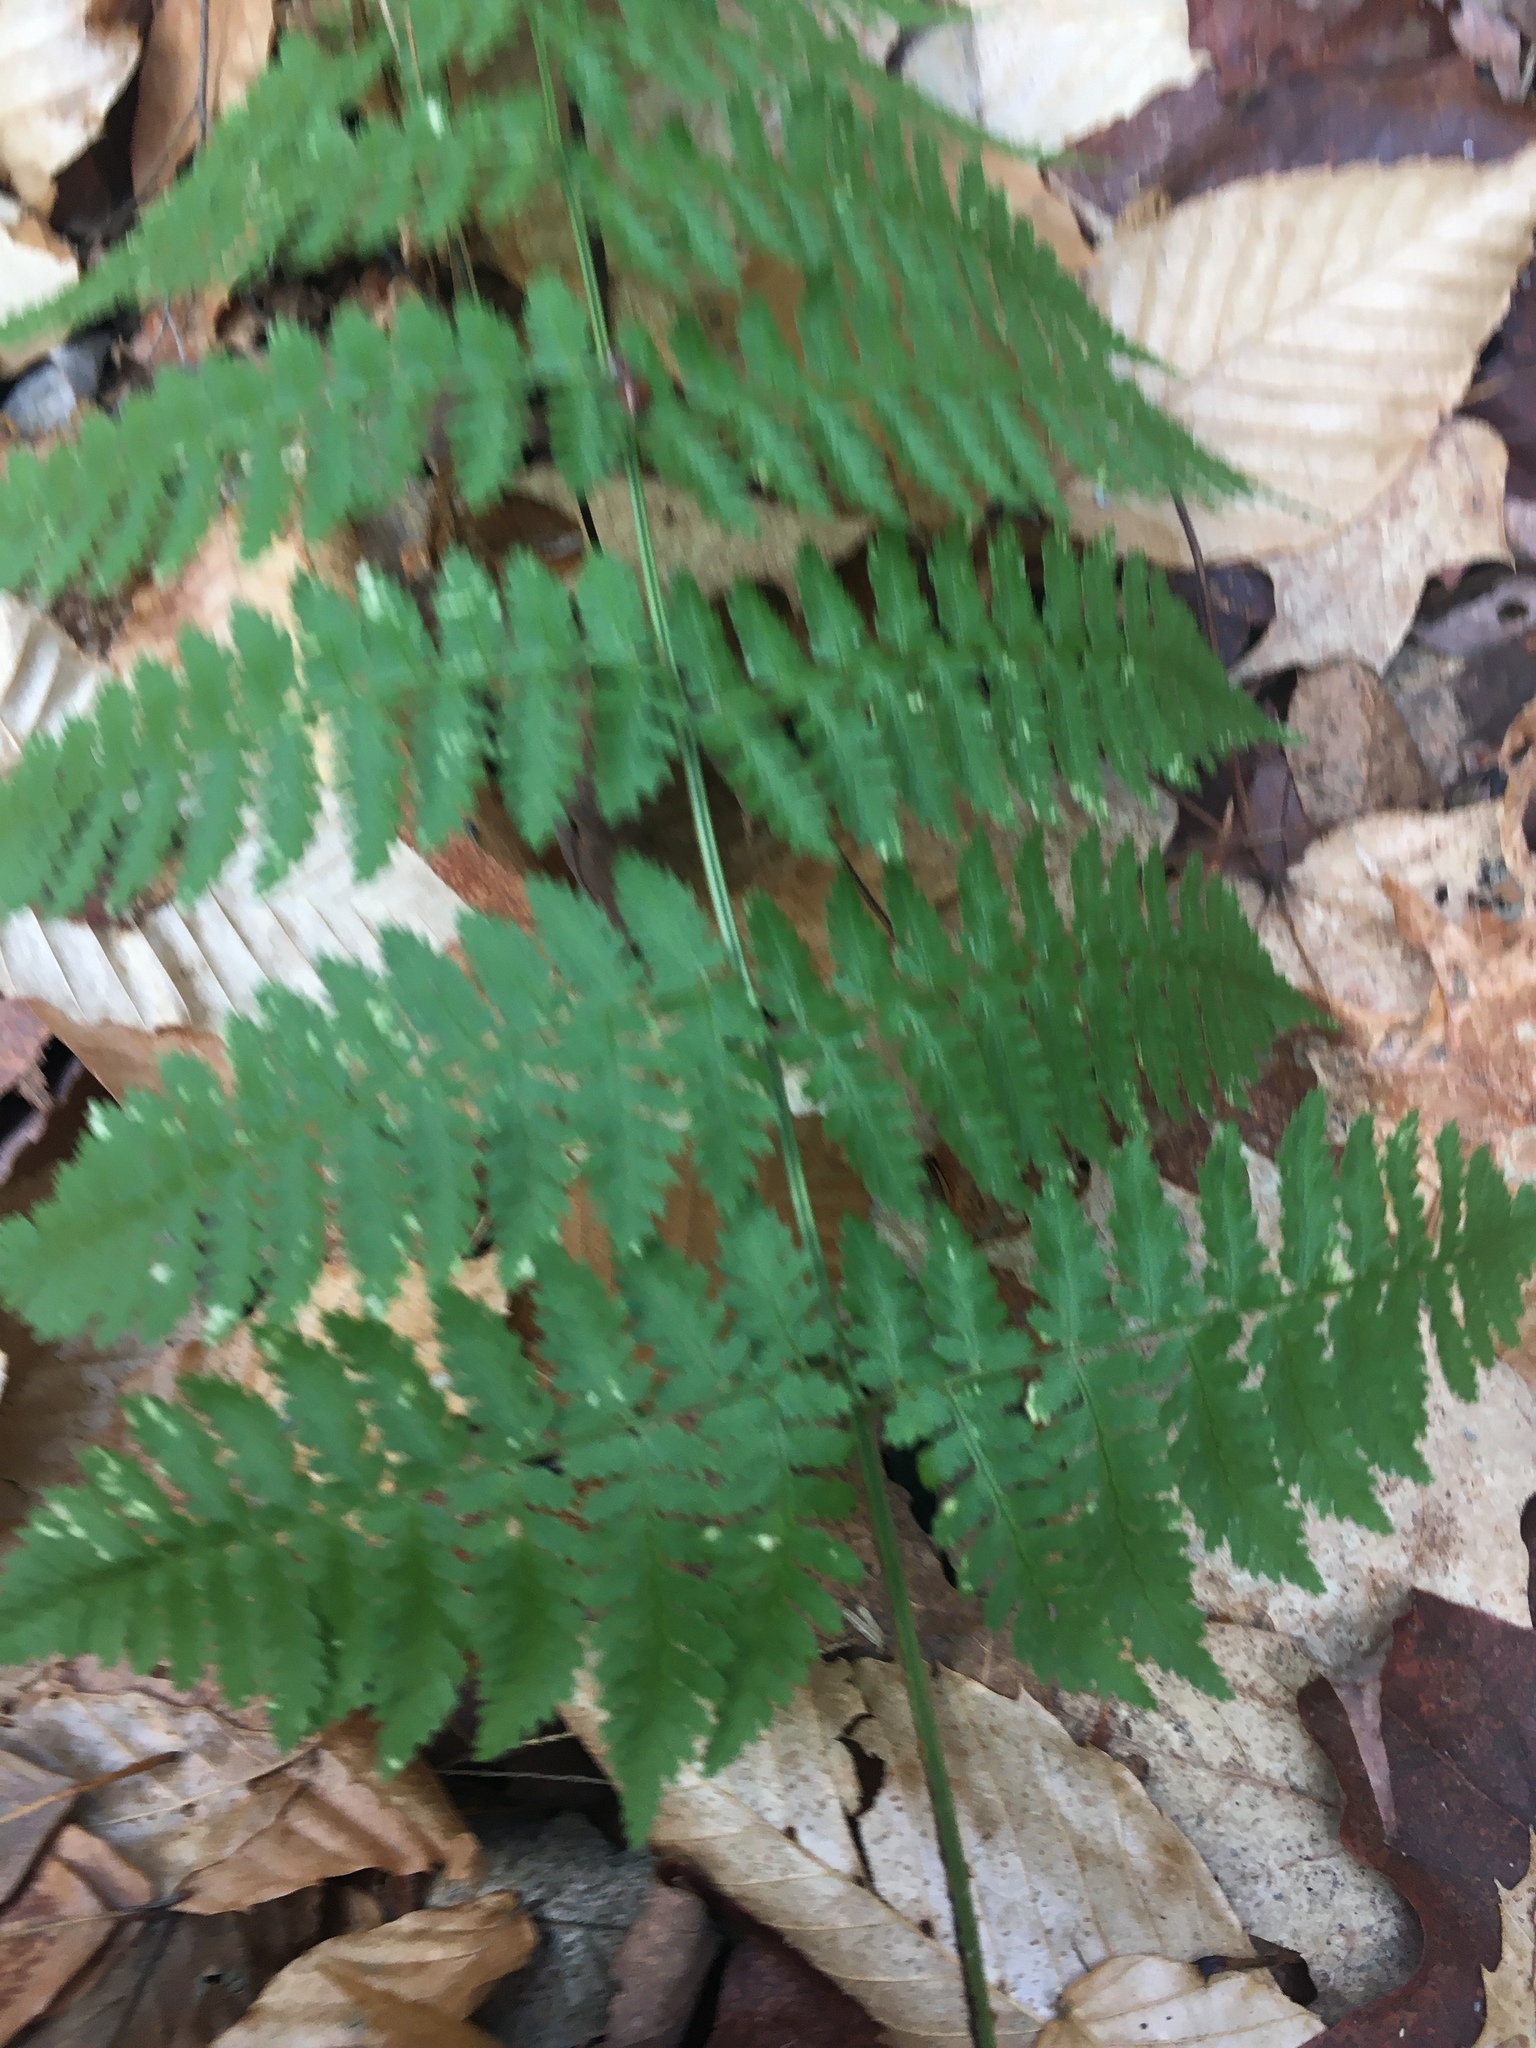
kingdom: Plantae
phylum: Tracheophyta
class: Polypodiopsida
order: Polypodiales
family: Dryopteridaceae
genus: Dryopteris
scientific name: Dryopteris intermedia
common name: Evergreen wood fern
